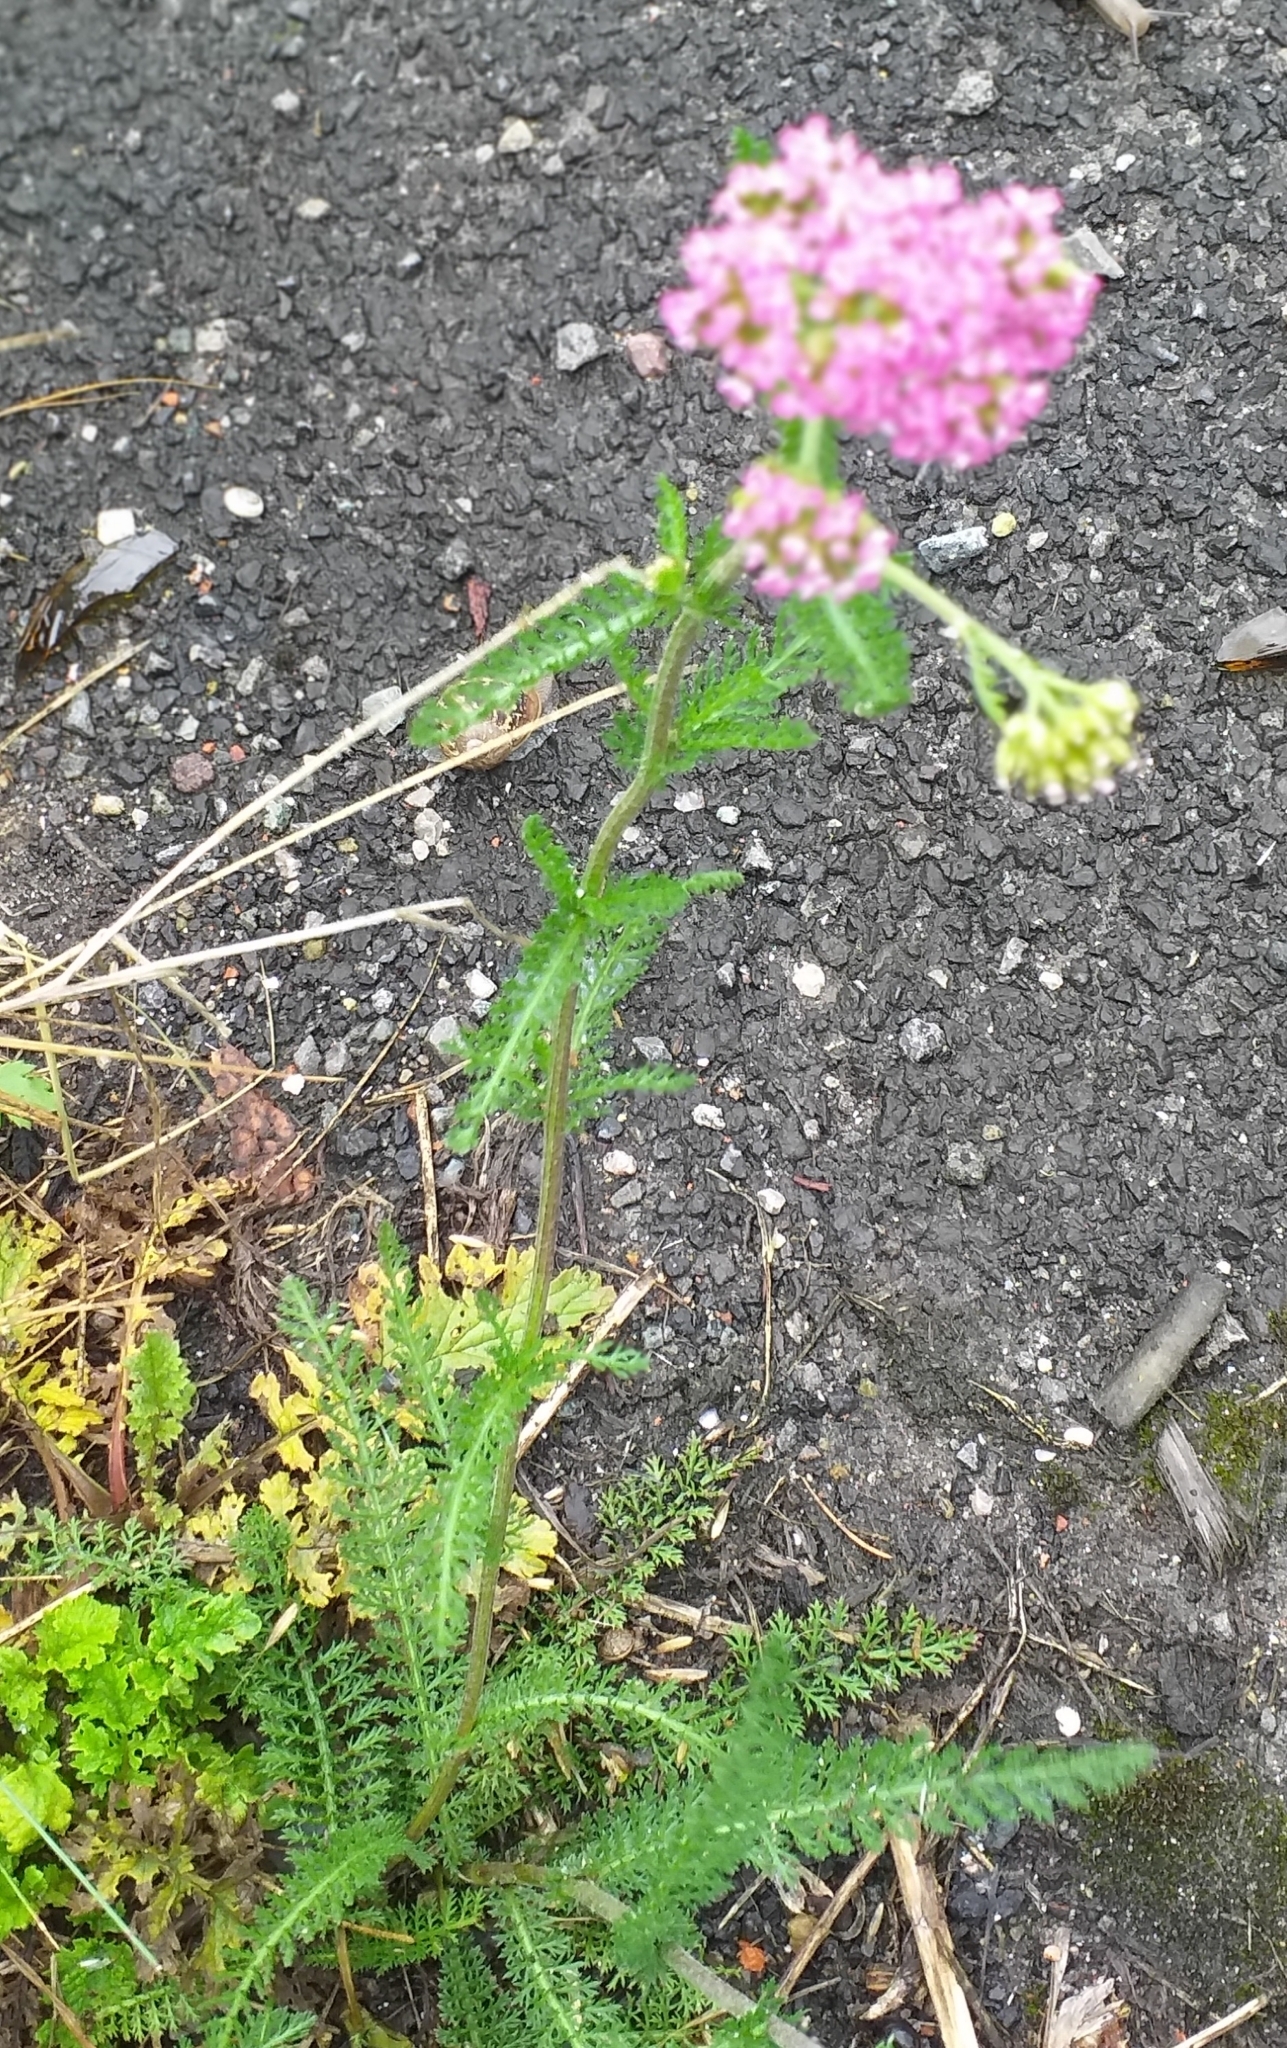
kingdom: Plantae
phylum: Tracheophyta
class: Magnoliopsida
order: Asterales
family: Asteraceae
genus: Achillea
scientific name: Achillea millefolium
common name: Yarrow
